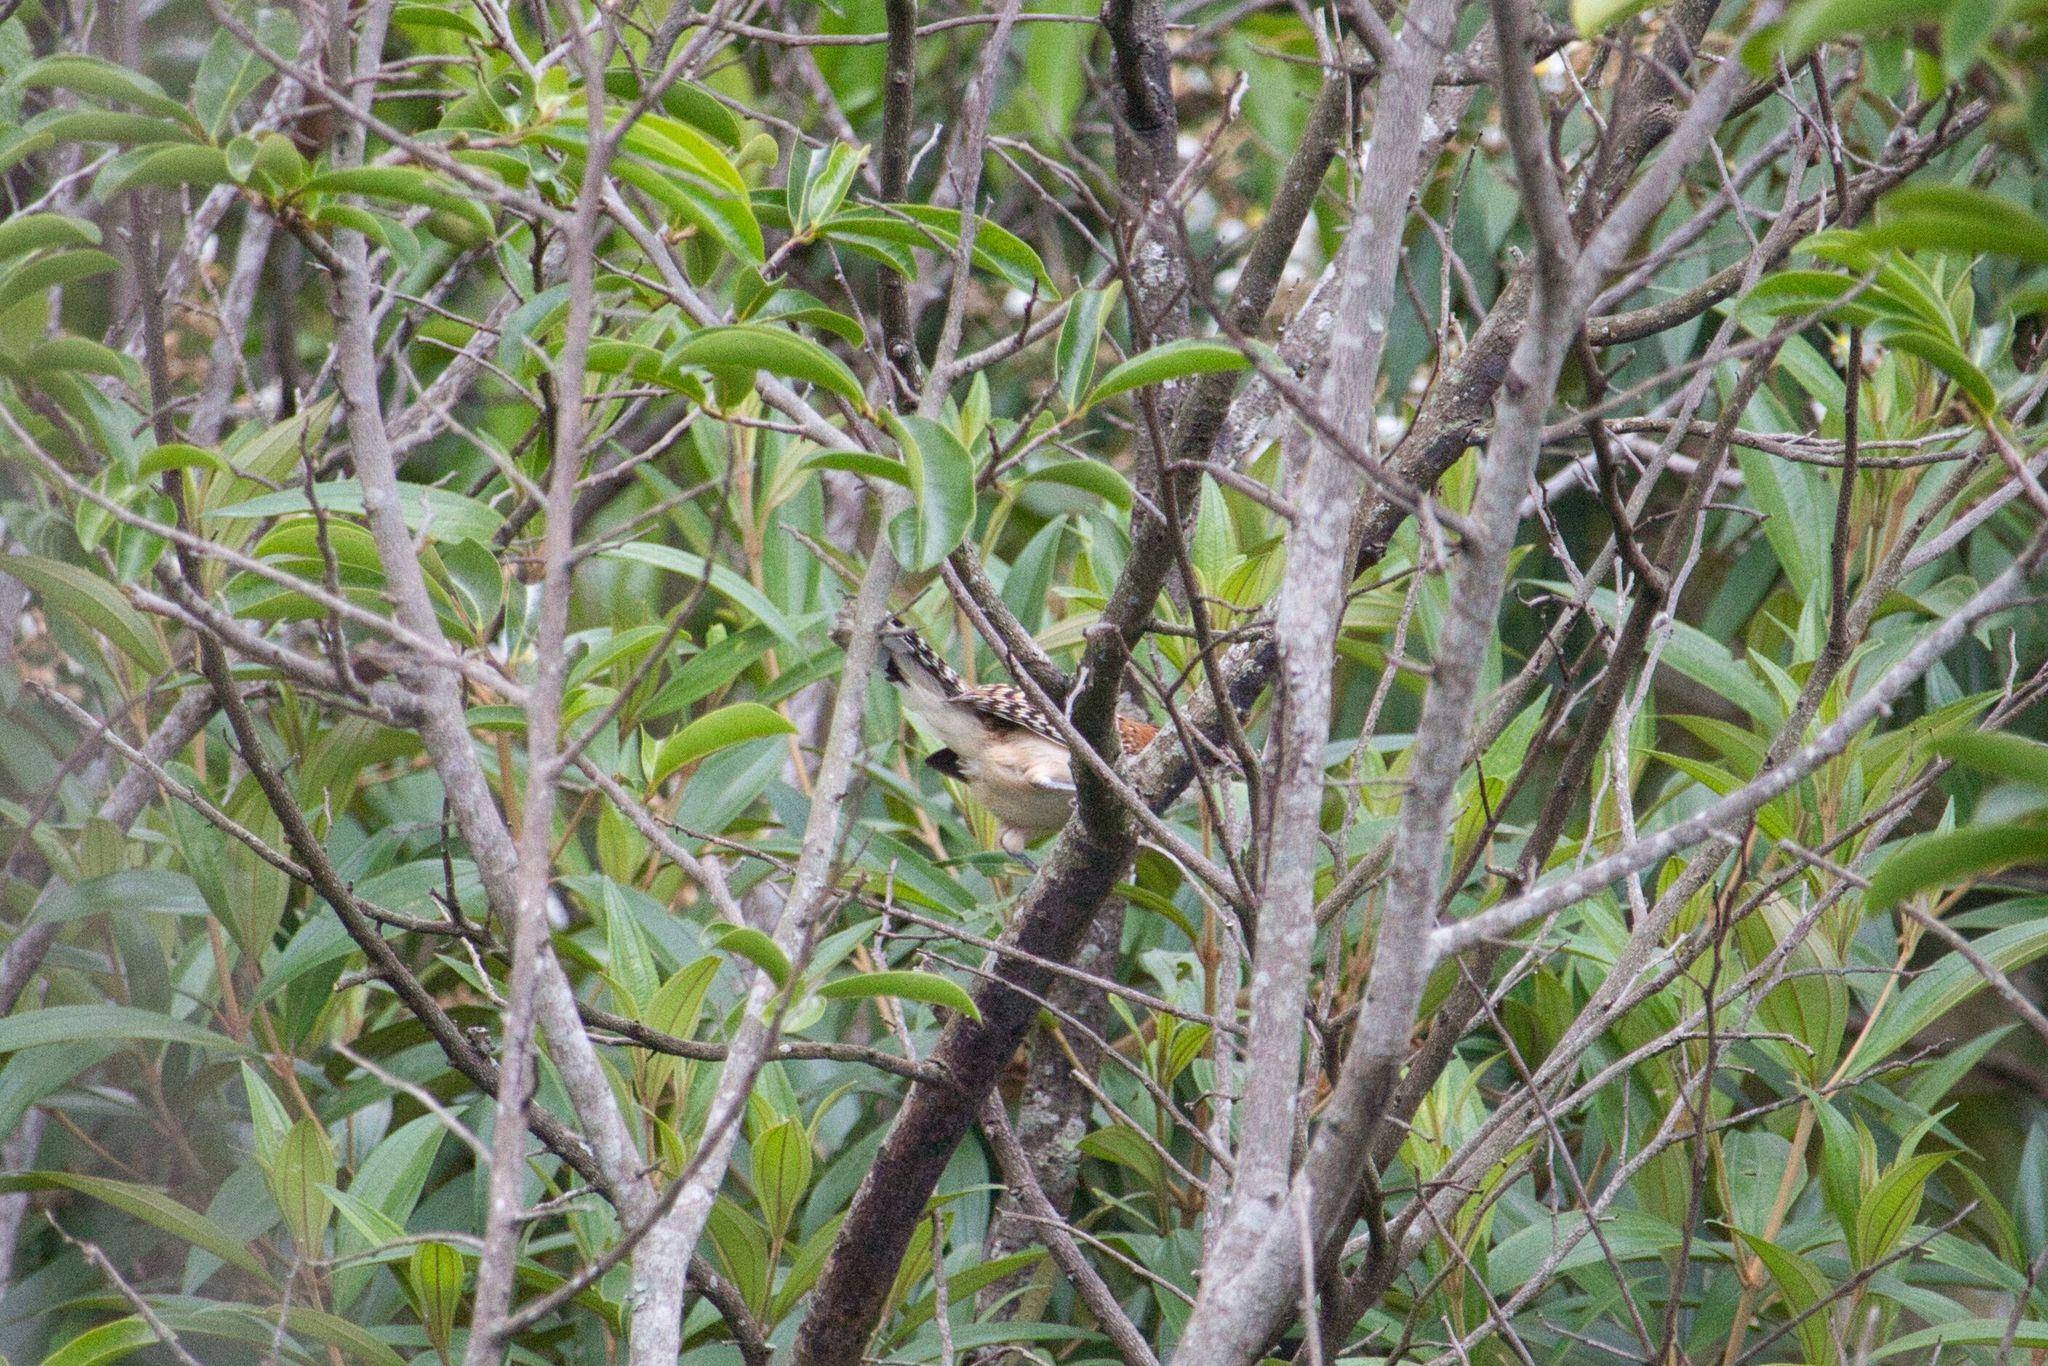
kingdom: Animalia
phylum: Chordata
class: Aves
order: Passeriformes
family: Troglodytidae
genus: Campylorhynchus
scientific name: Campylorhynchus rufinucha
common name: Rufous-naped wren
